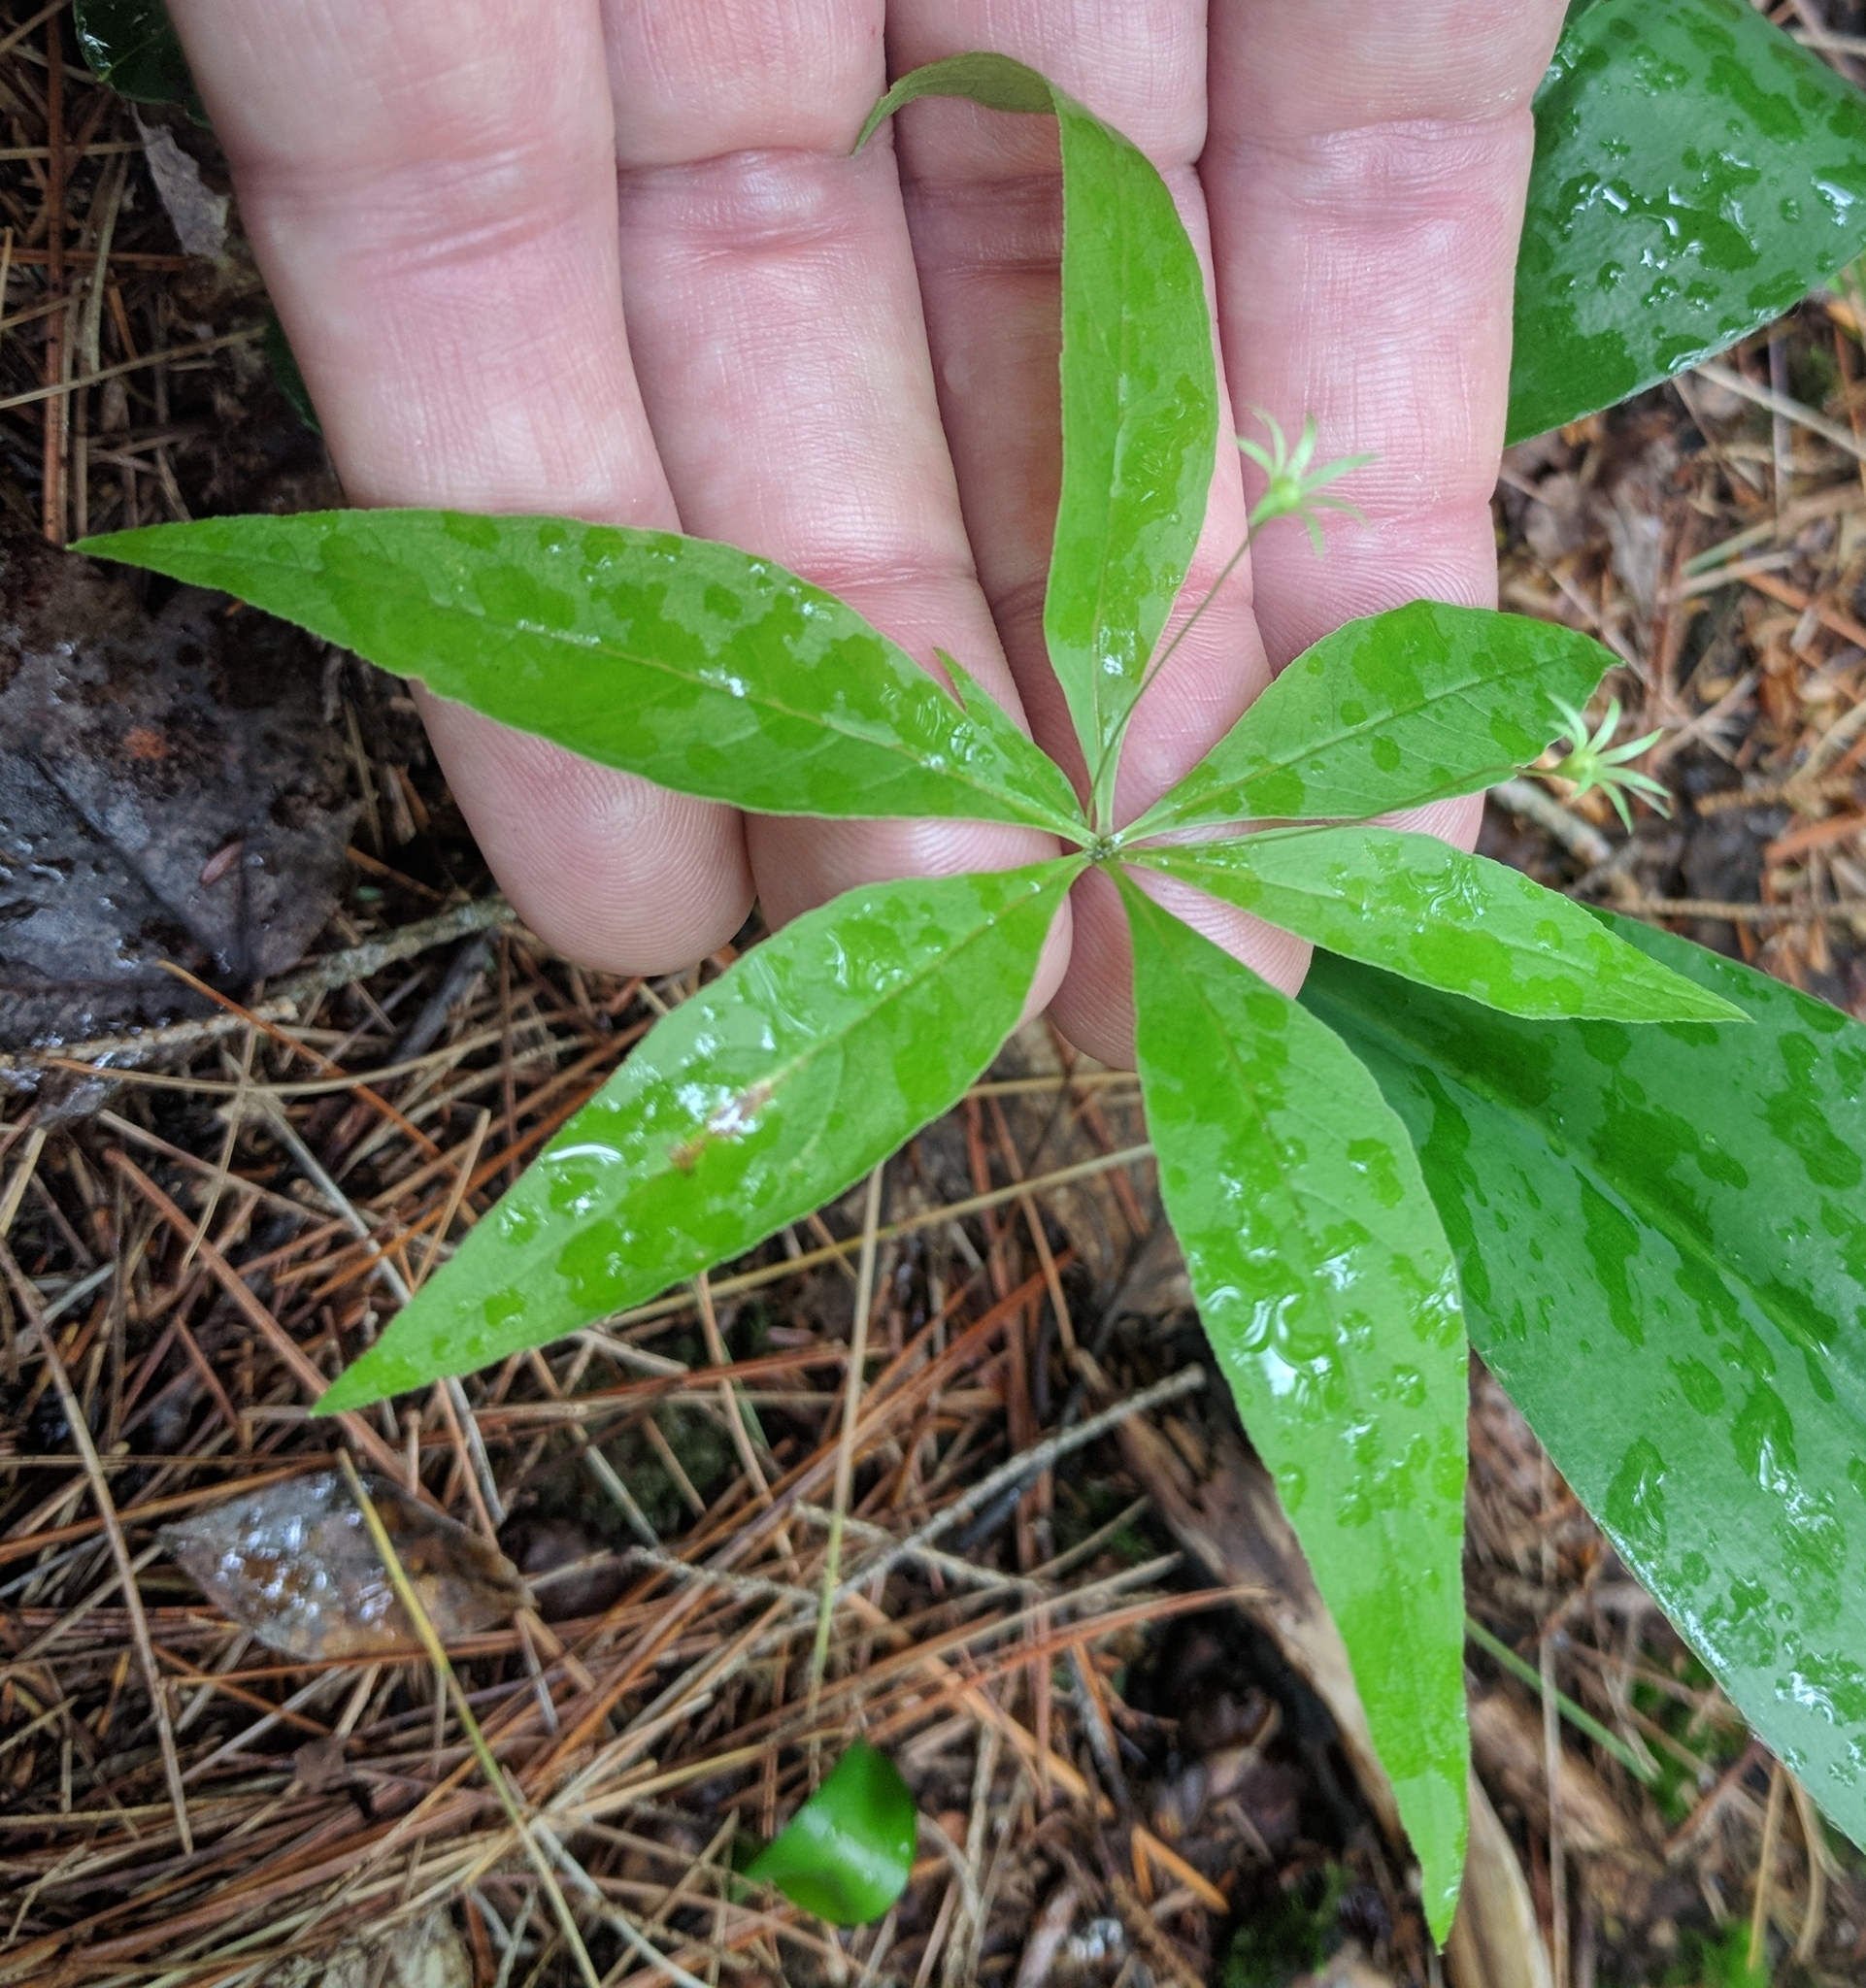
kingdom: Plantae
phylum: Tracheophyta
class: Magnoliopsida
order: Ericales
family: Primulaceae
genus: Lysimachia
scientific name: Lysimachia borealis
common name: American starflower
